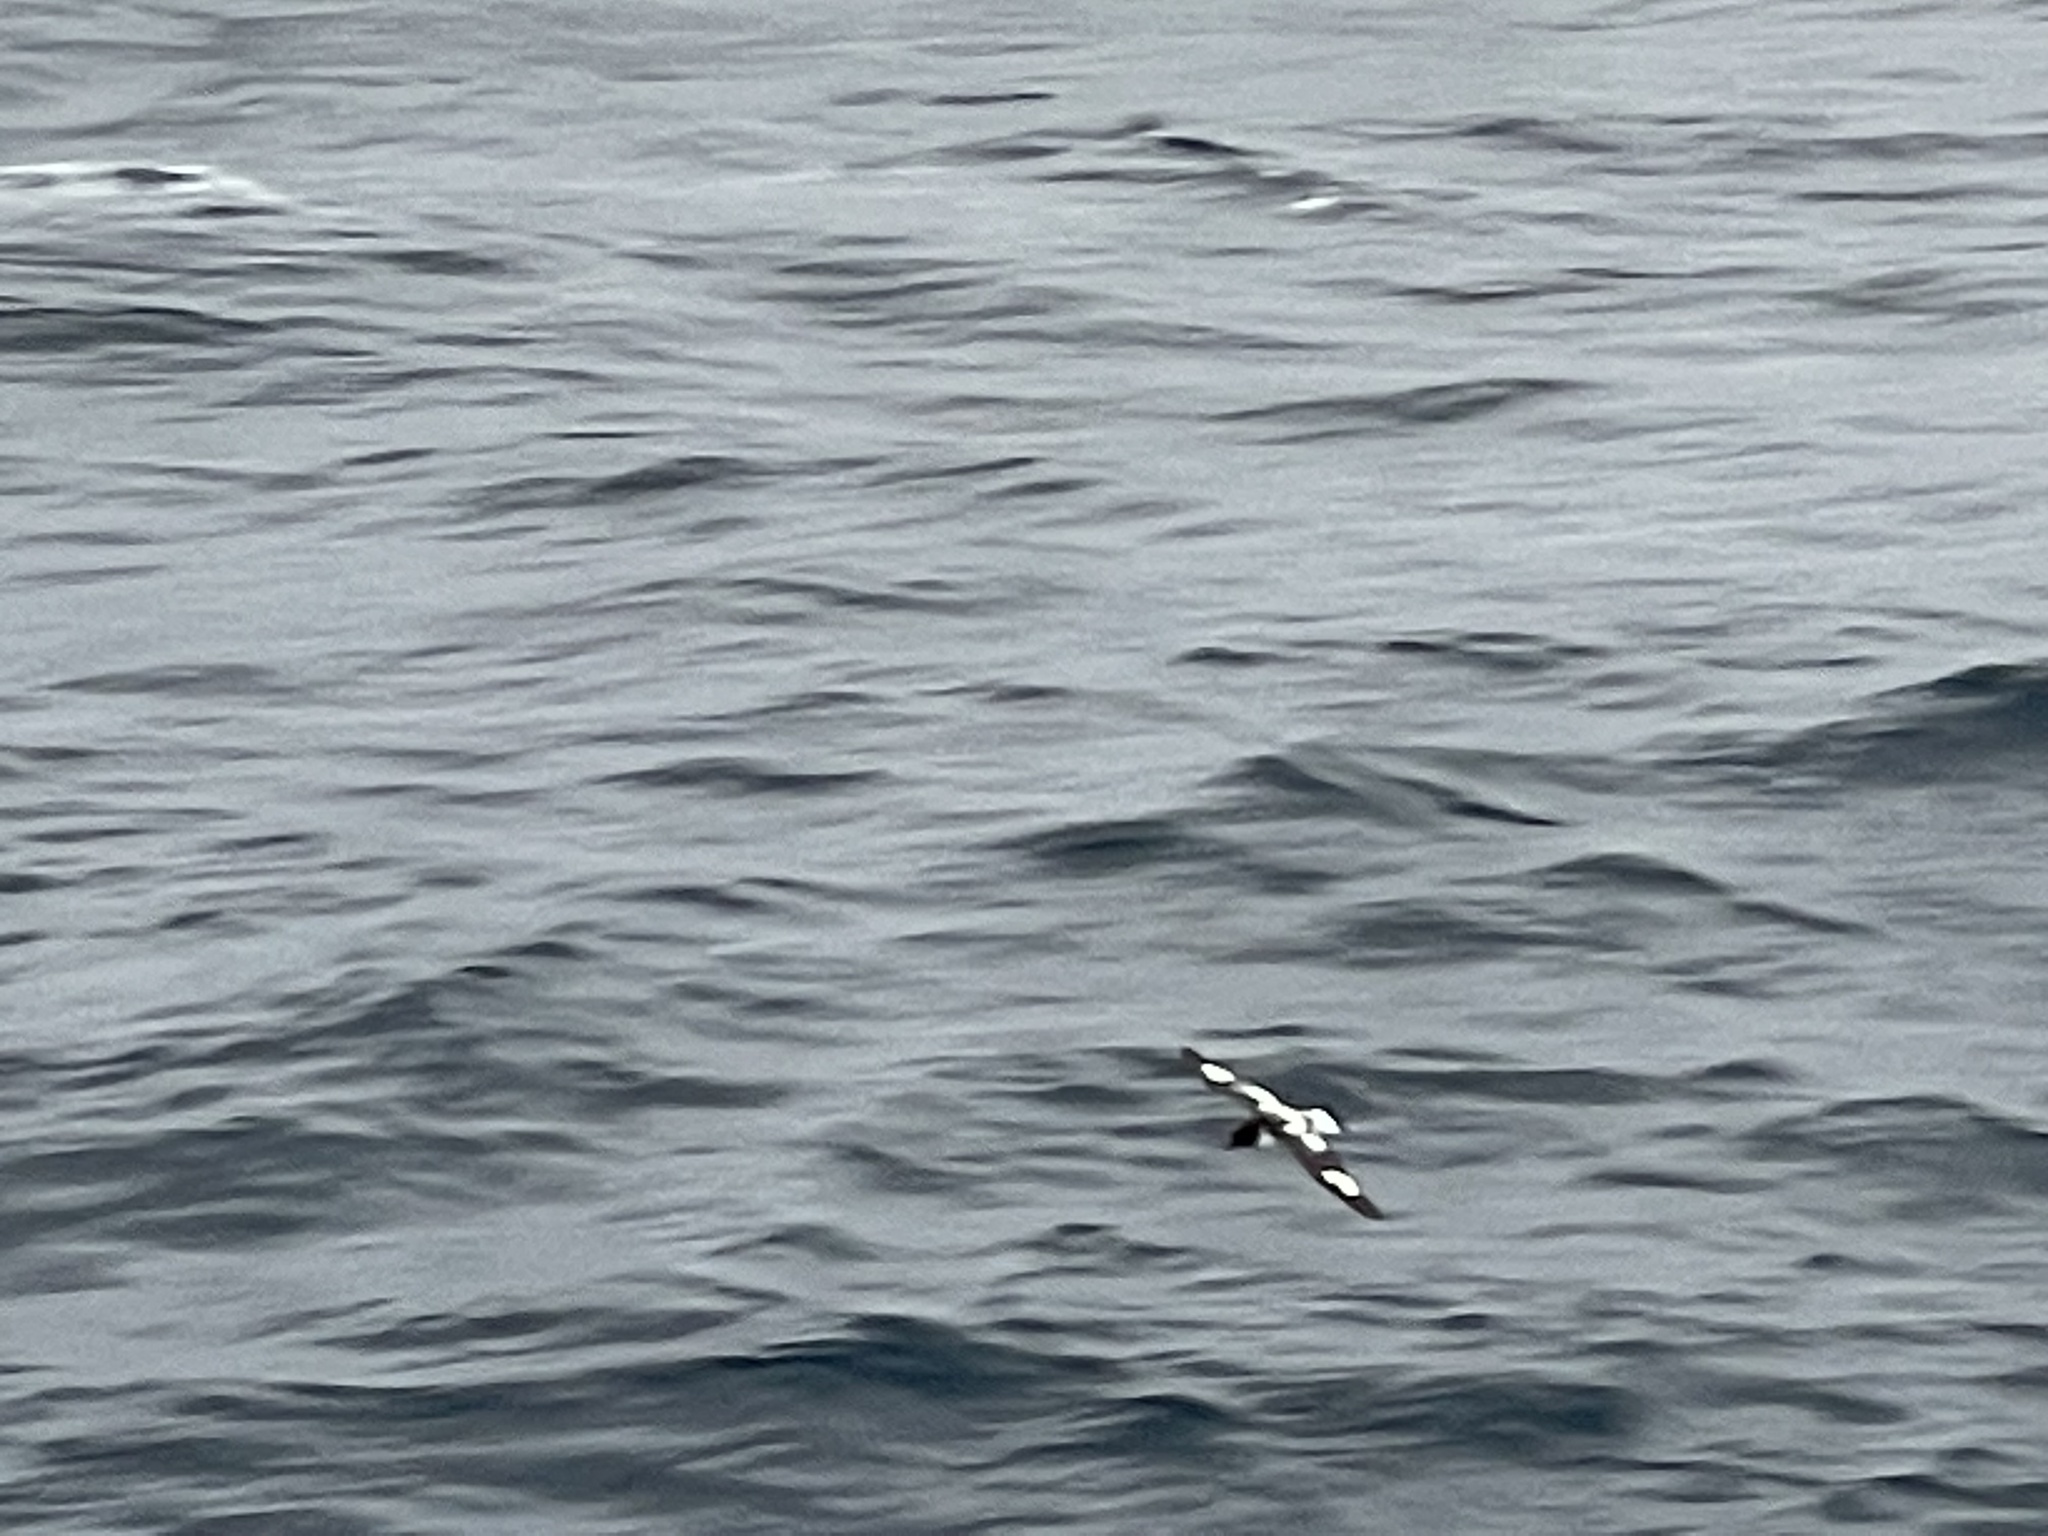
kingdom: Animalia
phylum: Chordata
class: Aves
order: Procellariiformes
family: Procellariidae
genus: Daption
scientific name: Daption capense
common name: Cape petrel
